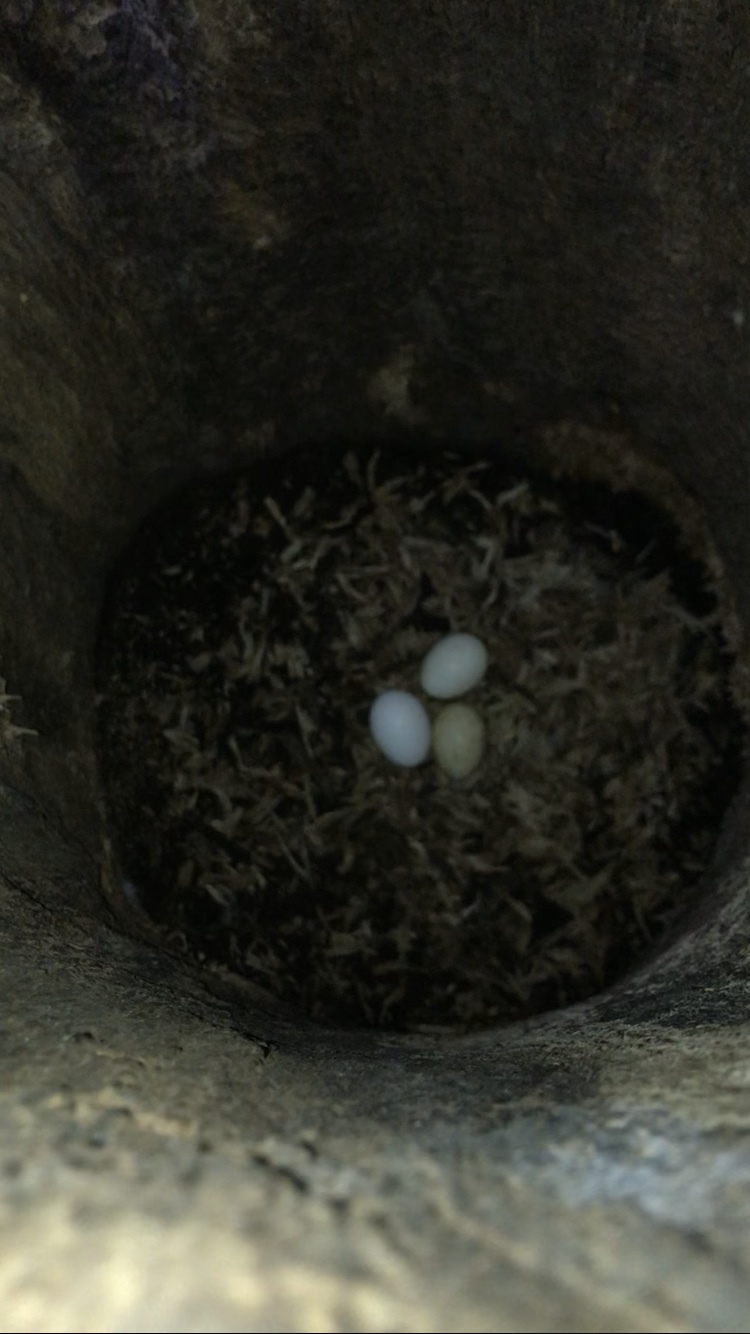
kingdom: Animalia
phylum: Chordata
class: Aves
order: Psittaciformes
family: Psittacidae
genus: Nestor
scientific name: Nestor meridionalis
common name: New zealand kaka
